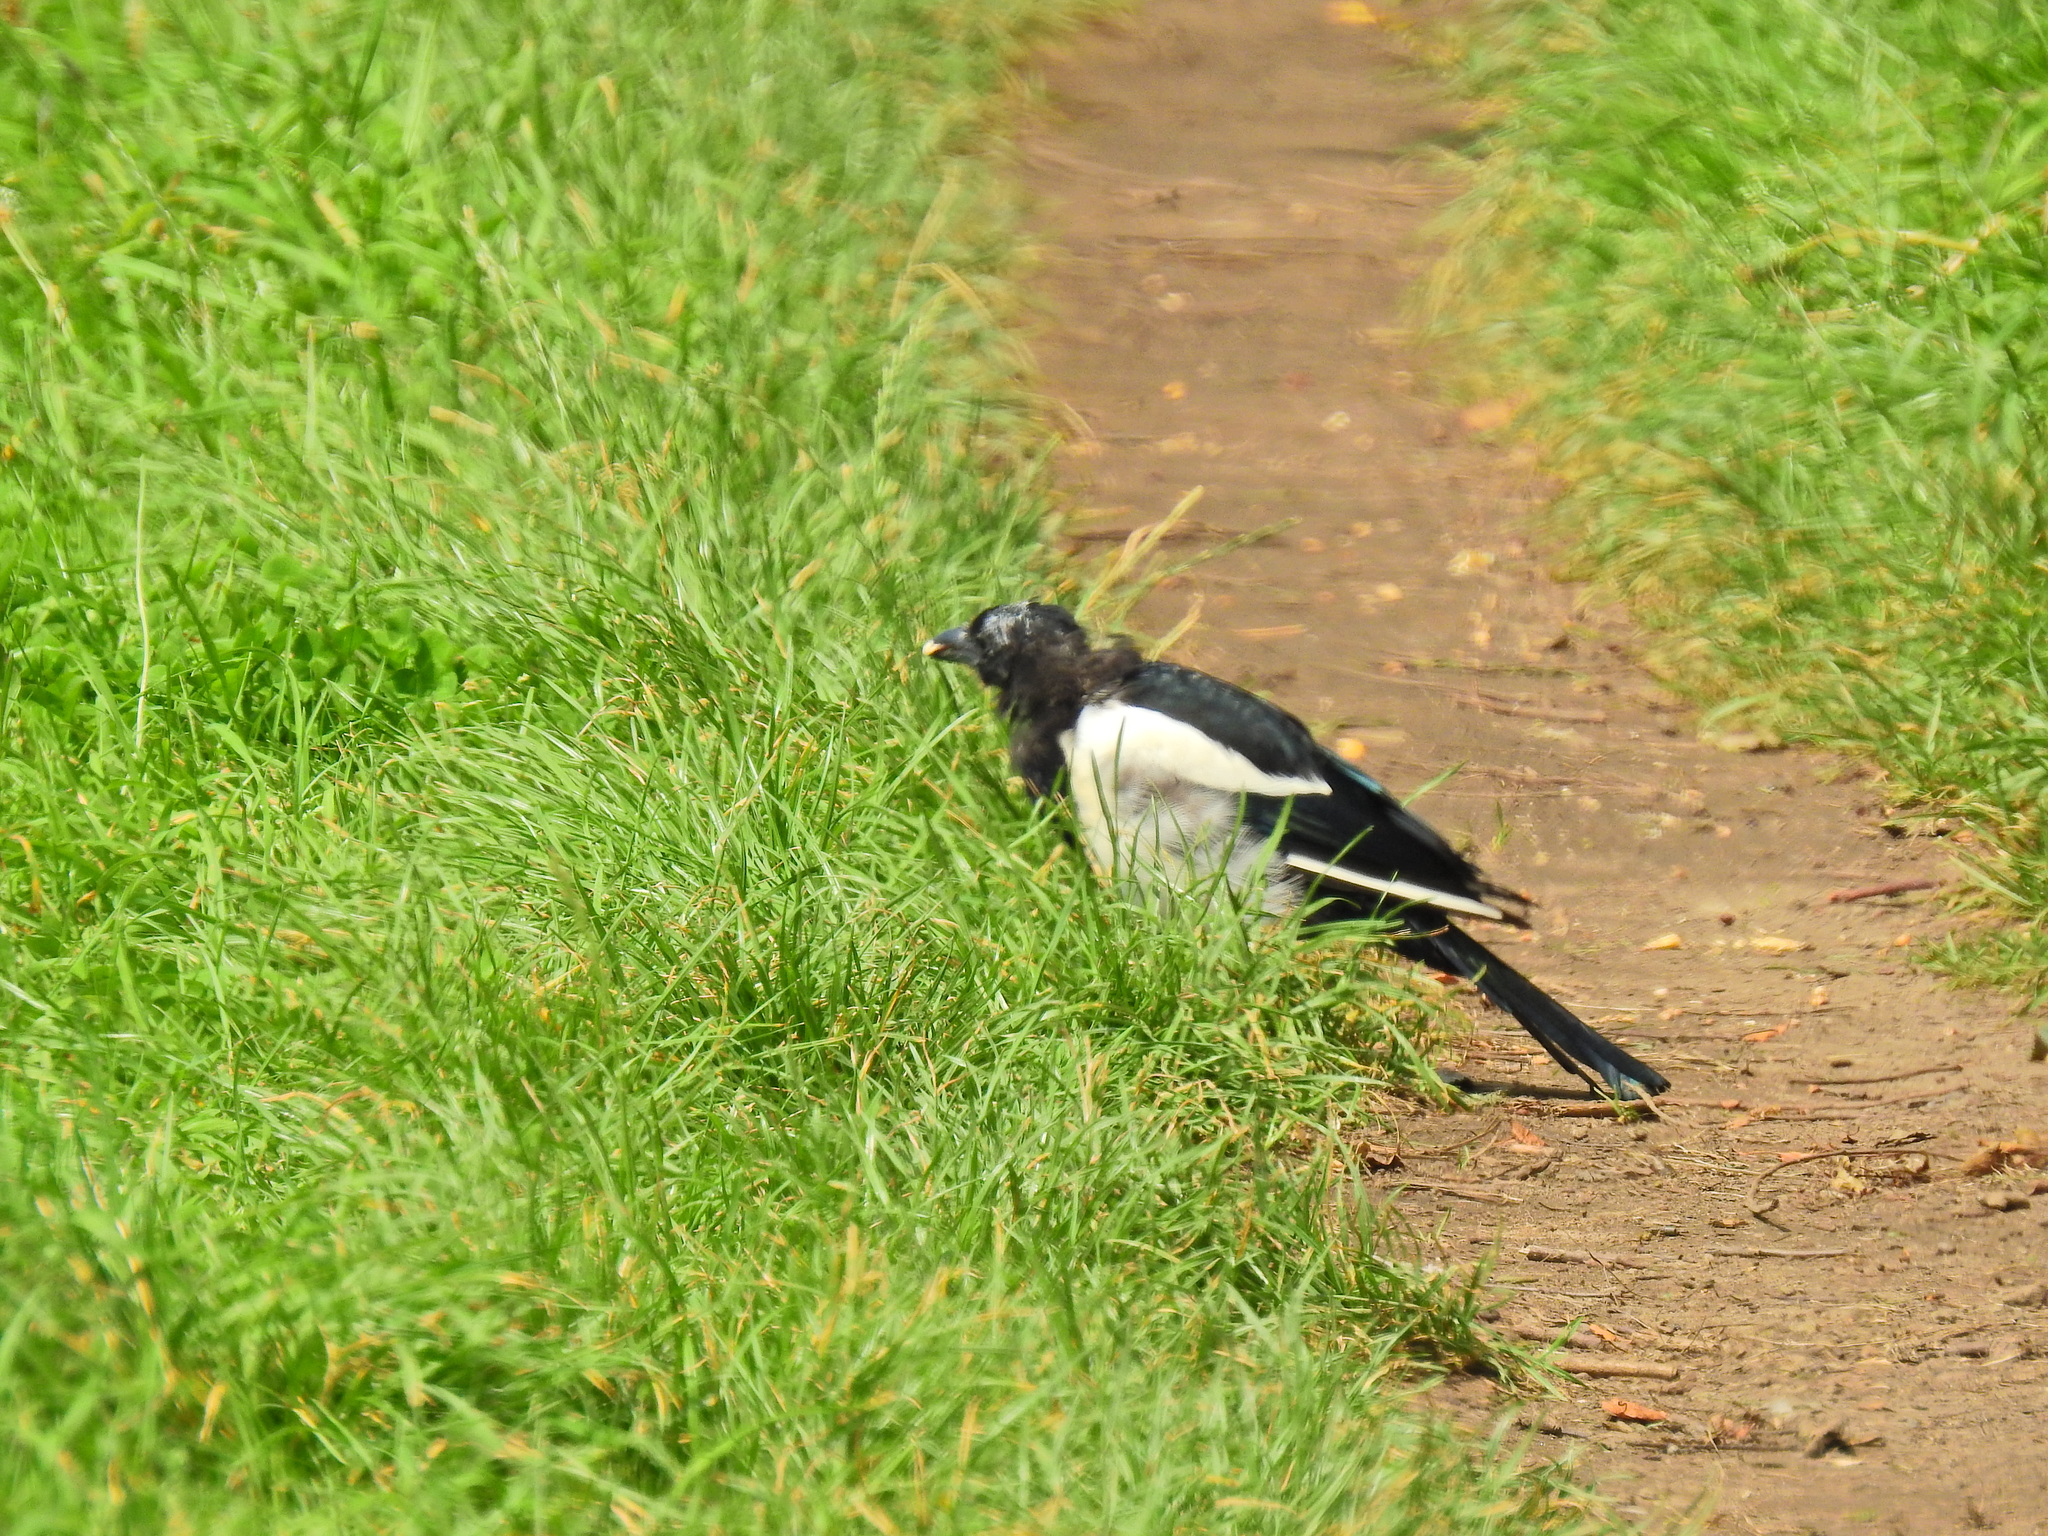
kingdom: Animalia
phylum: Chordata
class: Aves
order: Passeriformes
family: Corvidae
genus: Pica
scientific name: Pica pica
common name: Eurasian magpie
